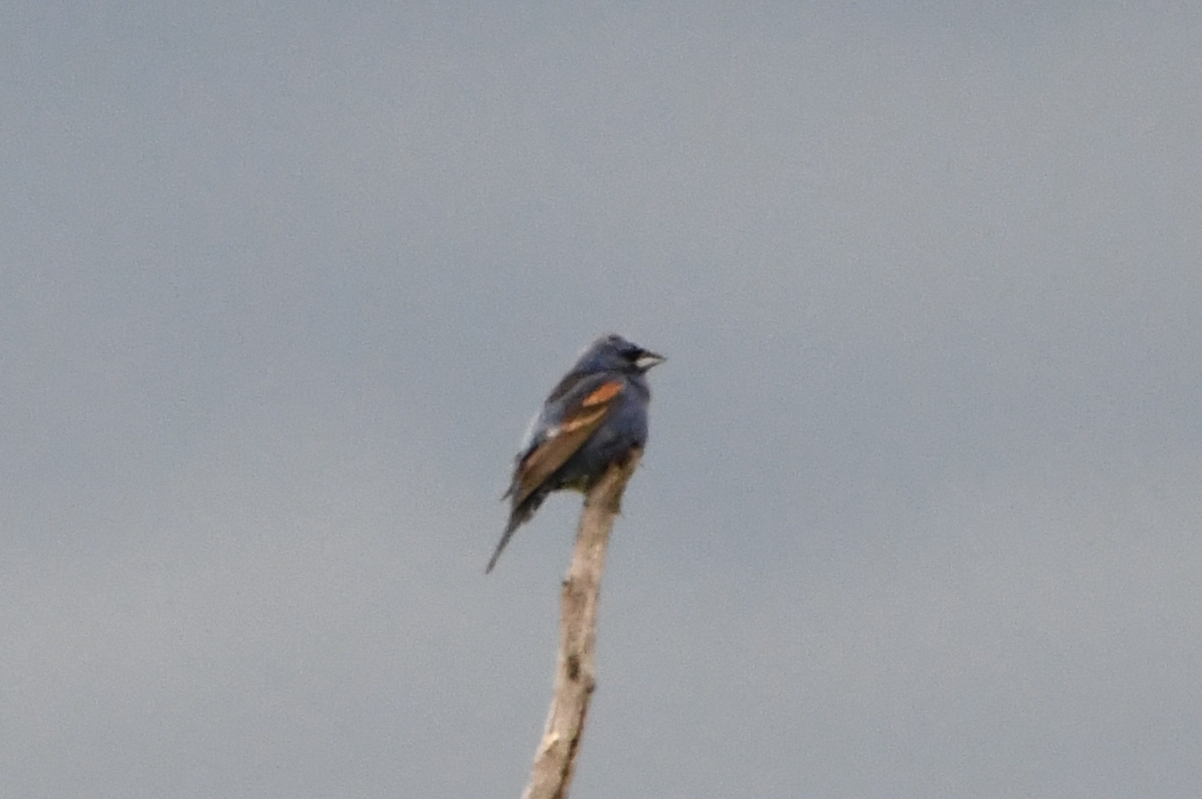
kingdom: Animalia
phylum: Chordata
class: Aves
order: Passeriformes
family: Cardinalidae
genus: Passerina
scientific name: Passerina caerulea
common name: Blue grosbeak
